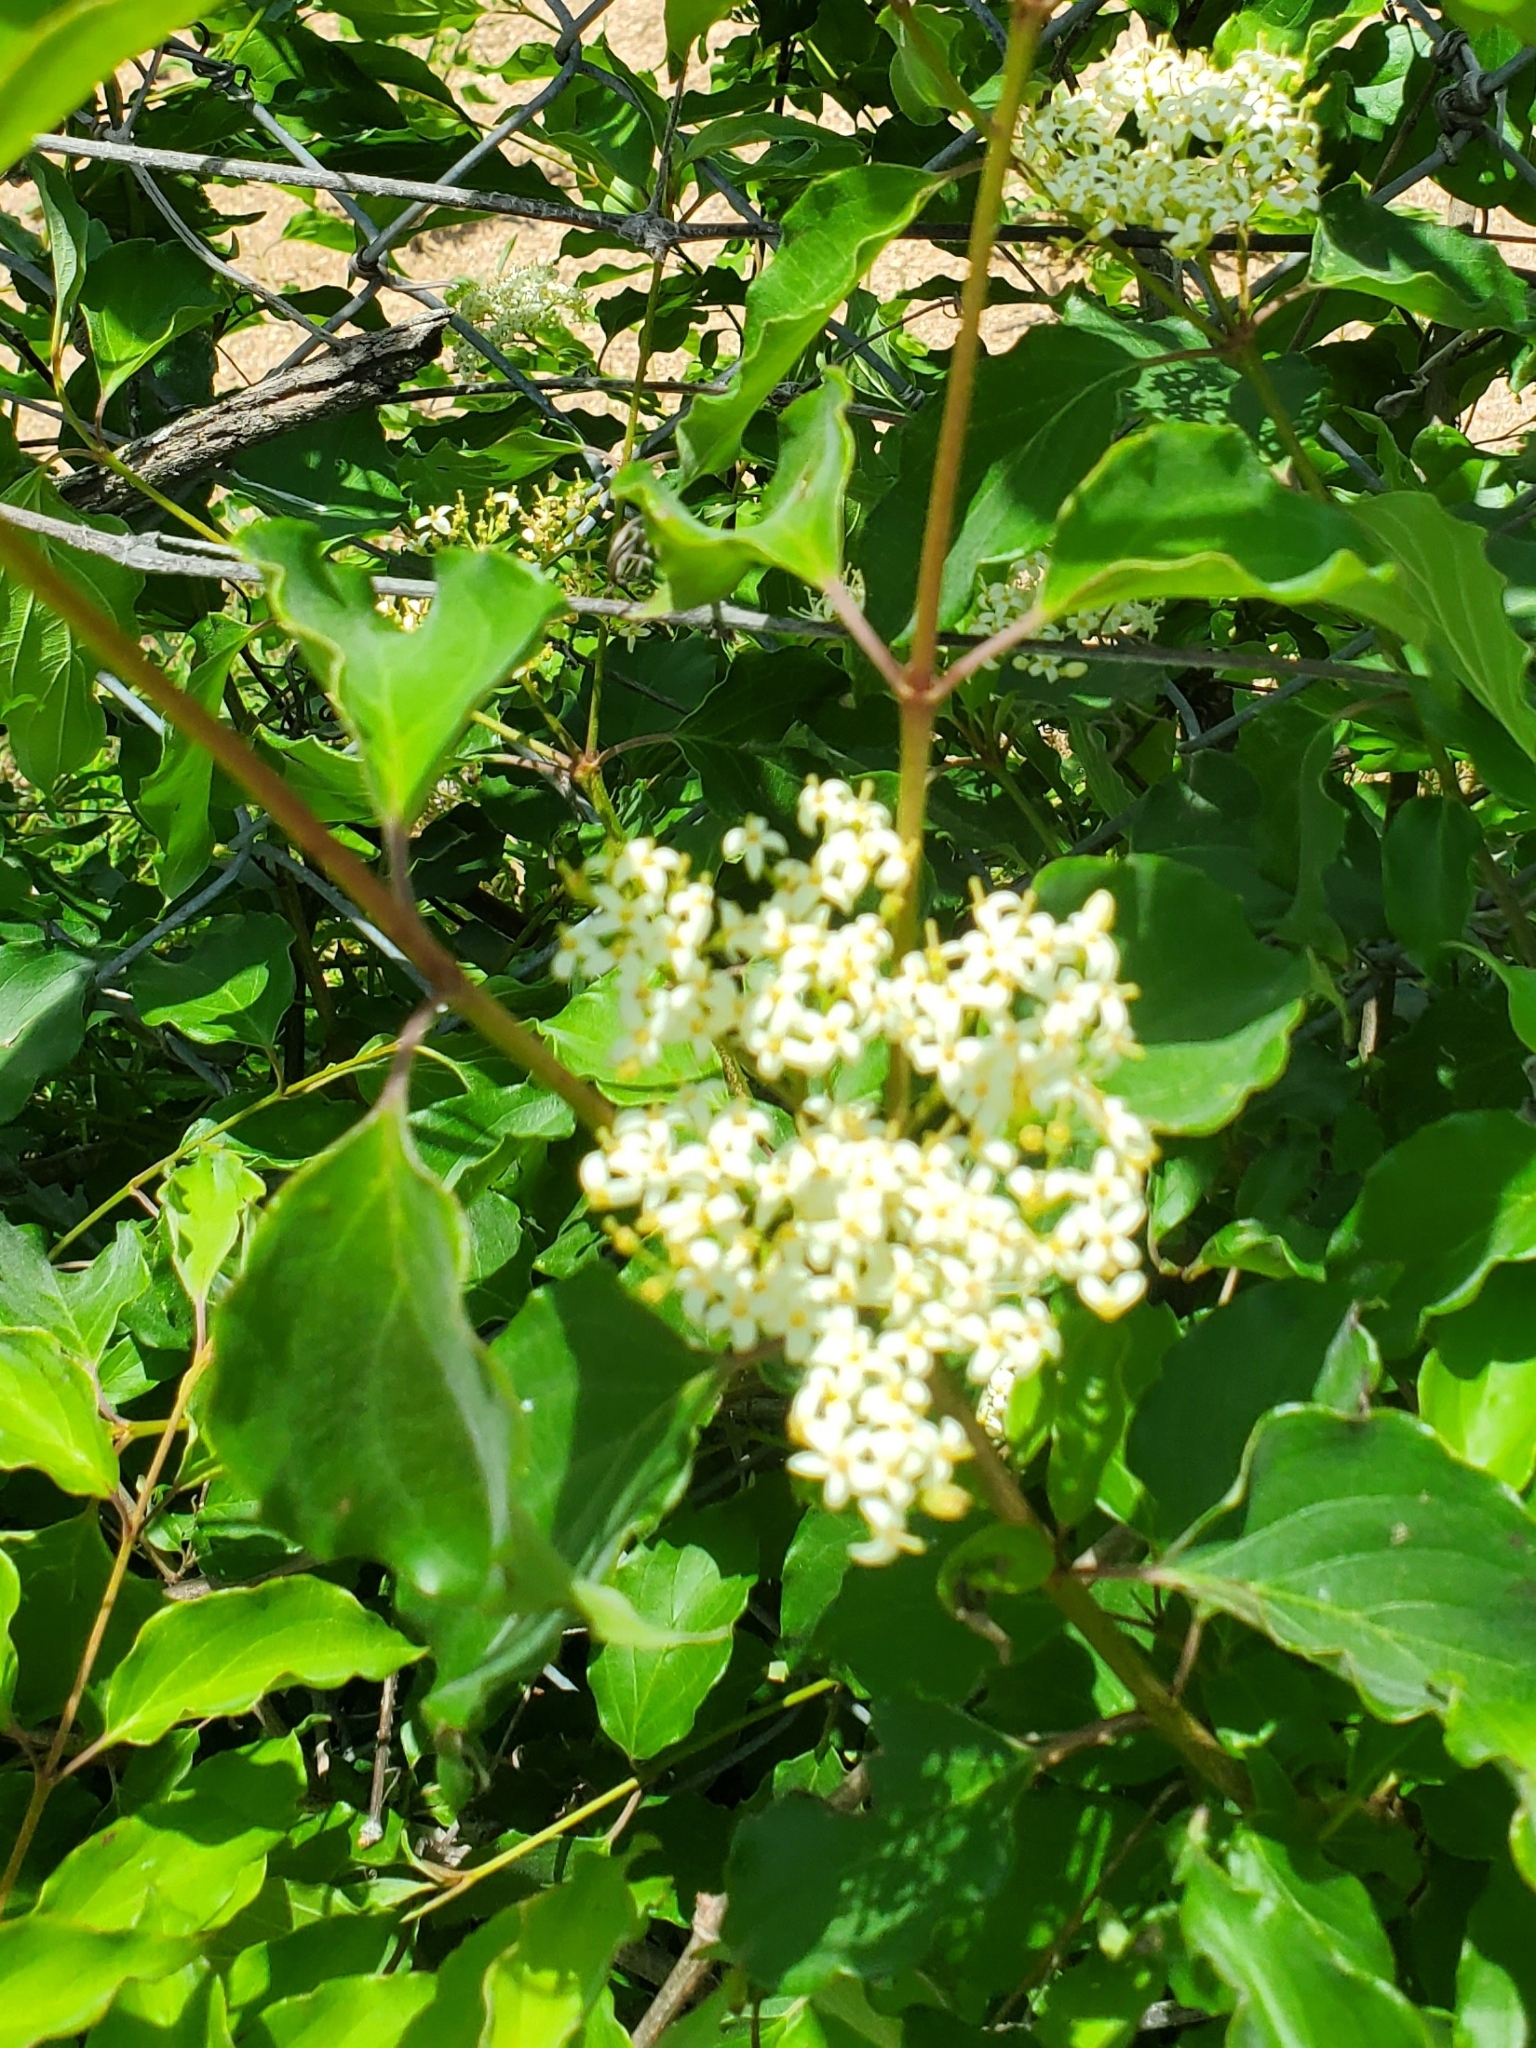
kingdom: Plantae
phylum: Tracheophyta
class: Magnoliopsida
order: Cornales
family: Cornaceae
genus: Cornus
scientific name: Cornus drummondii
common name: Rough-leaf dogwood
